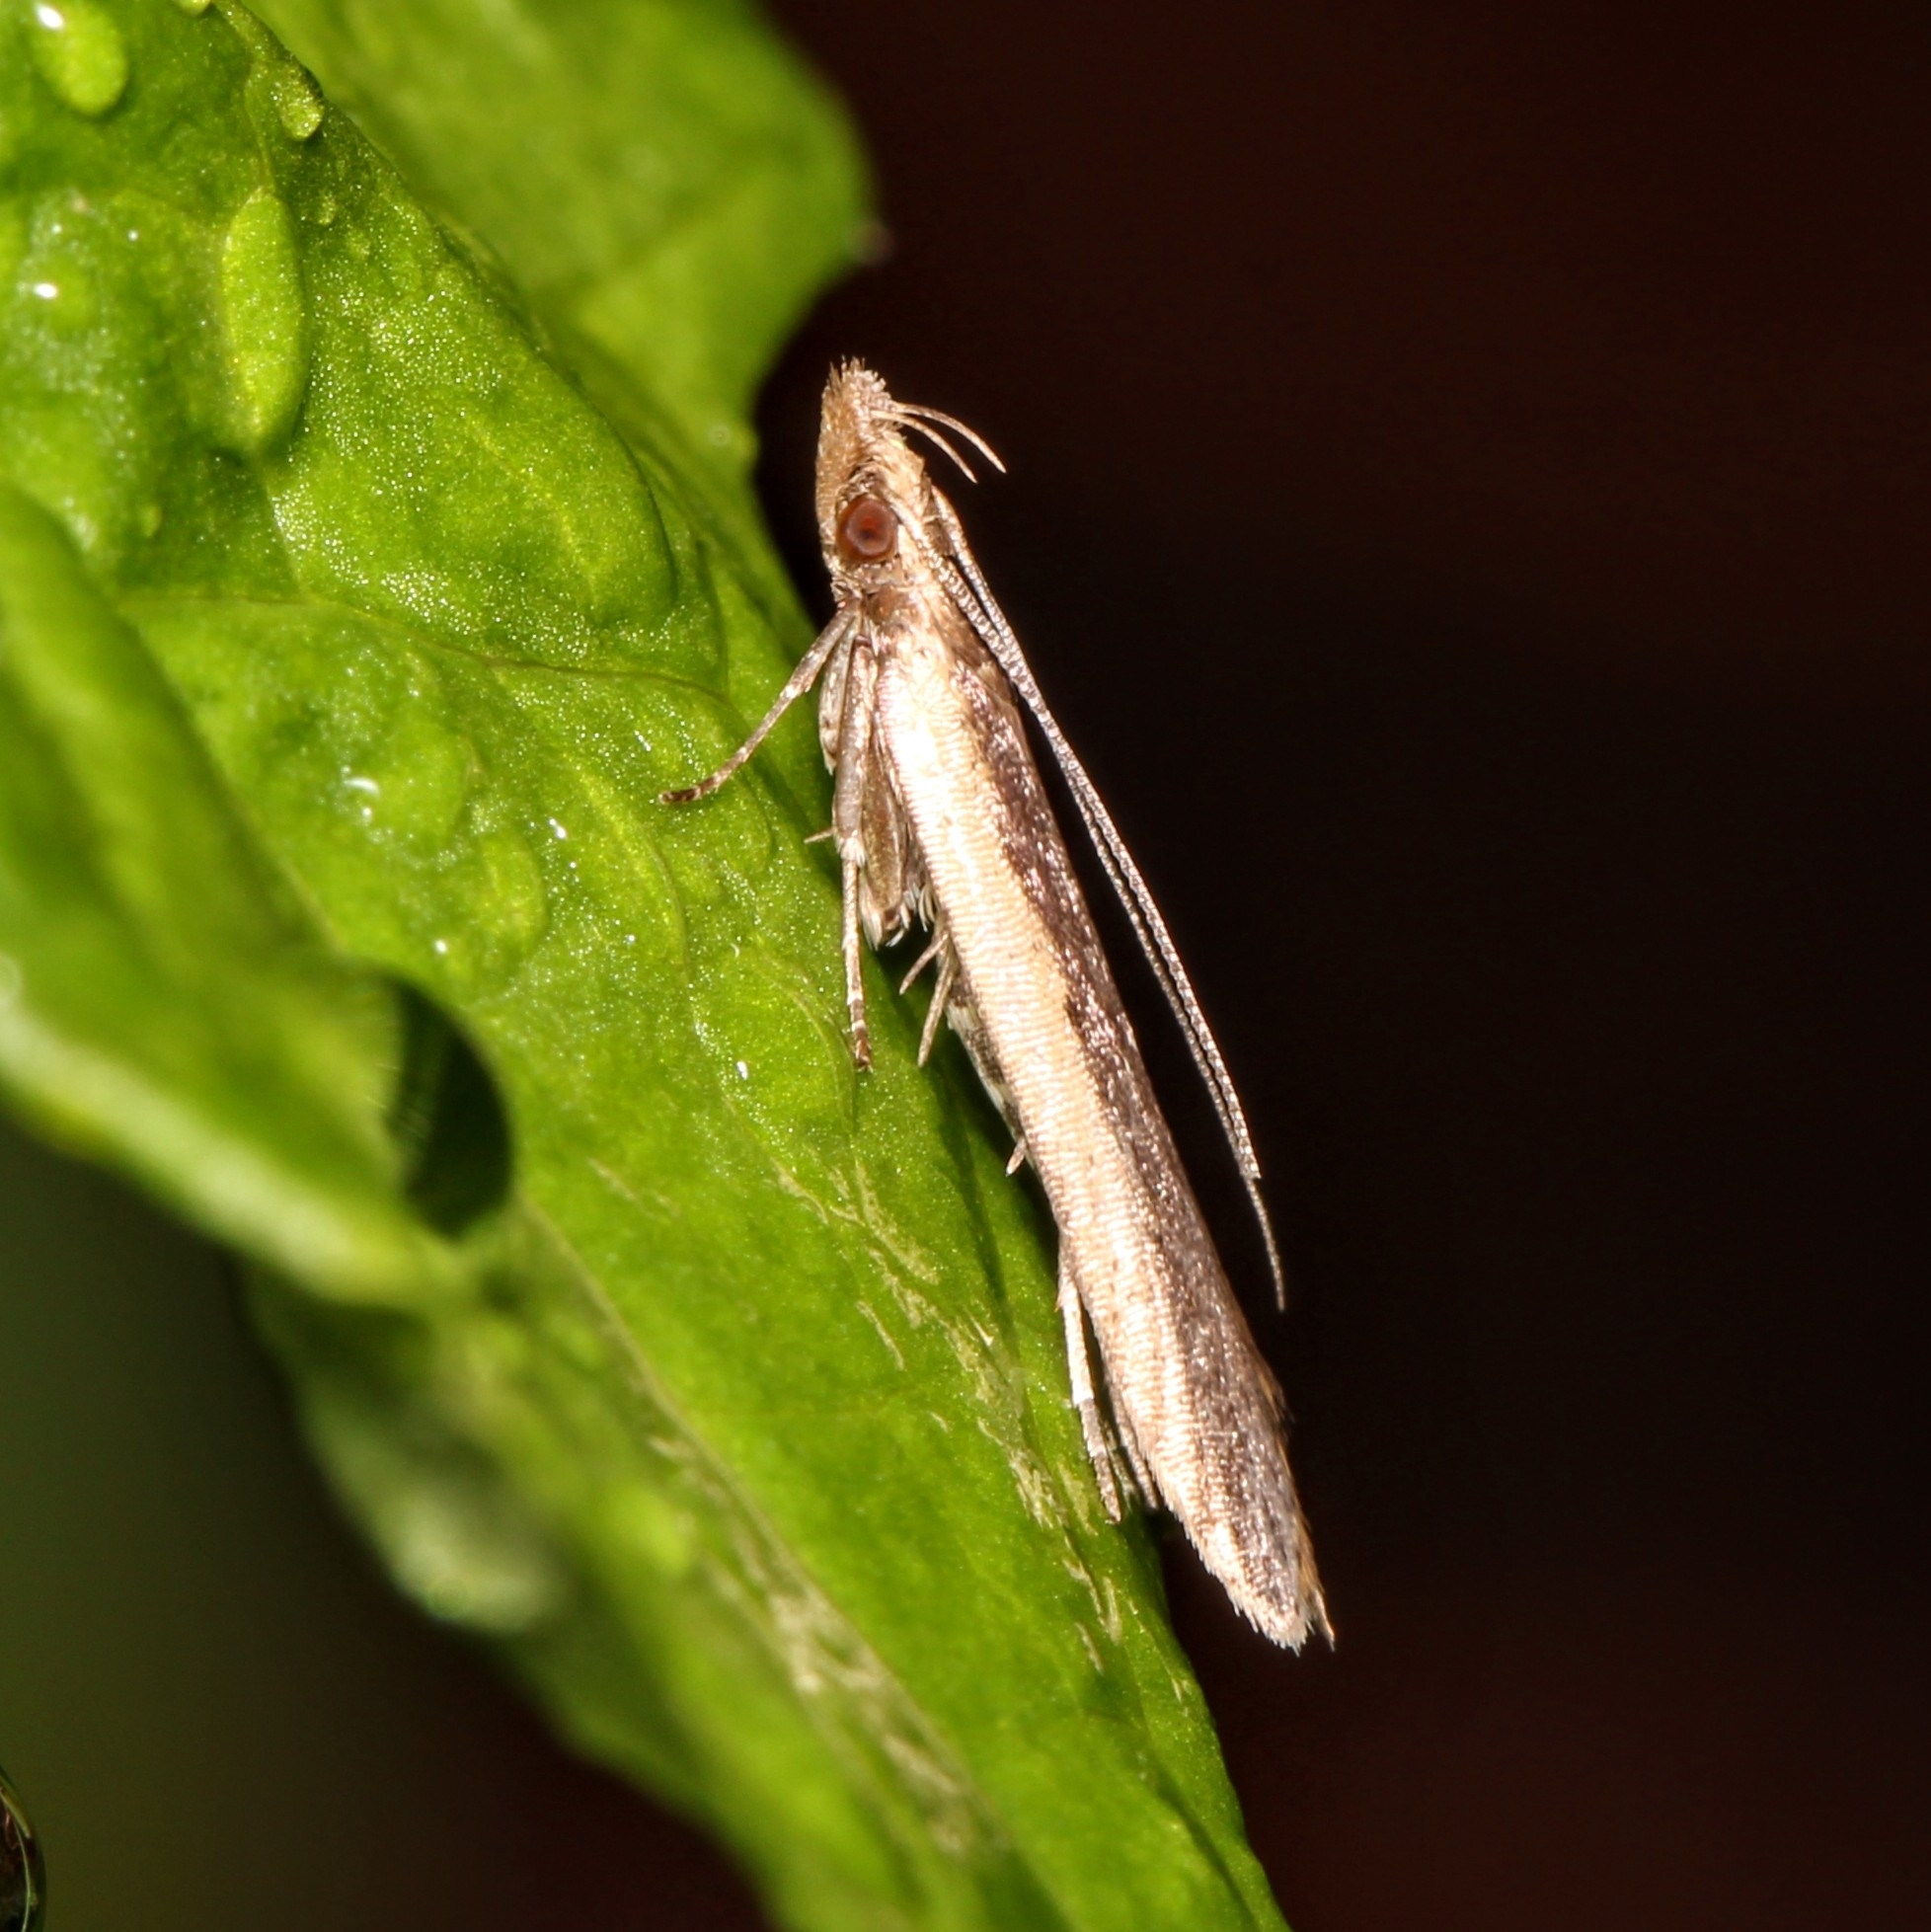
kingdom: Animalia
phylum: Arthropoda
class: Insecta
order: Lepidoptera
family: Gelechiidae
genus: Dichomeris
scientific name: Dichomeris ligulella
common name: Moth
